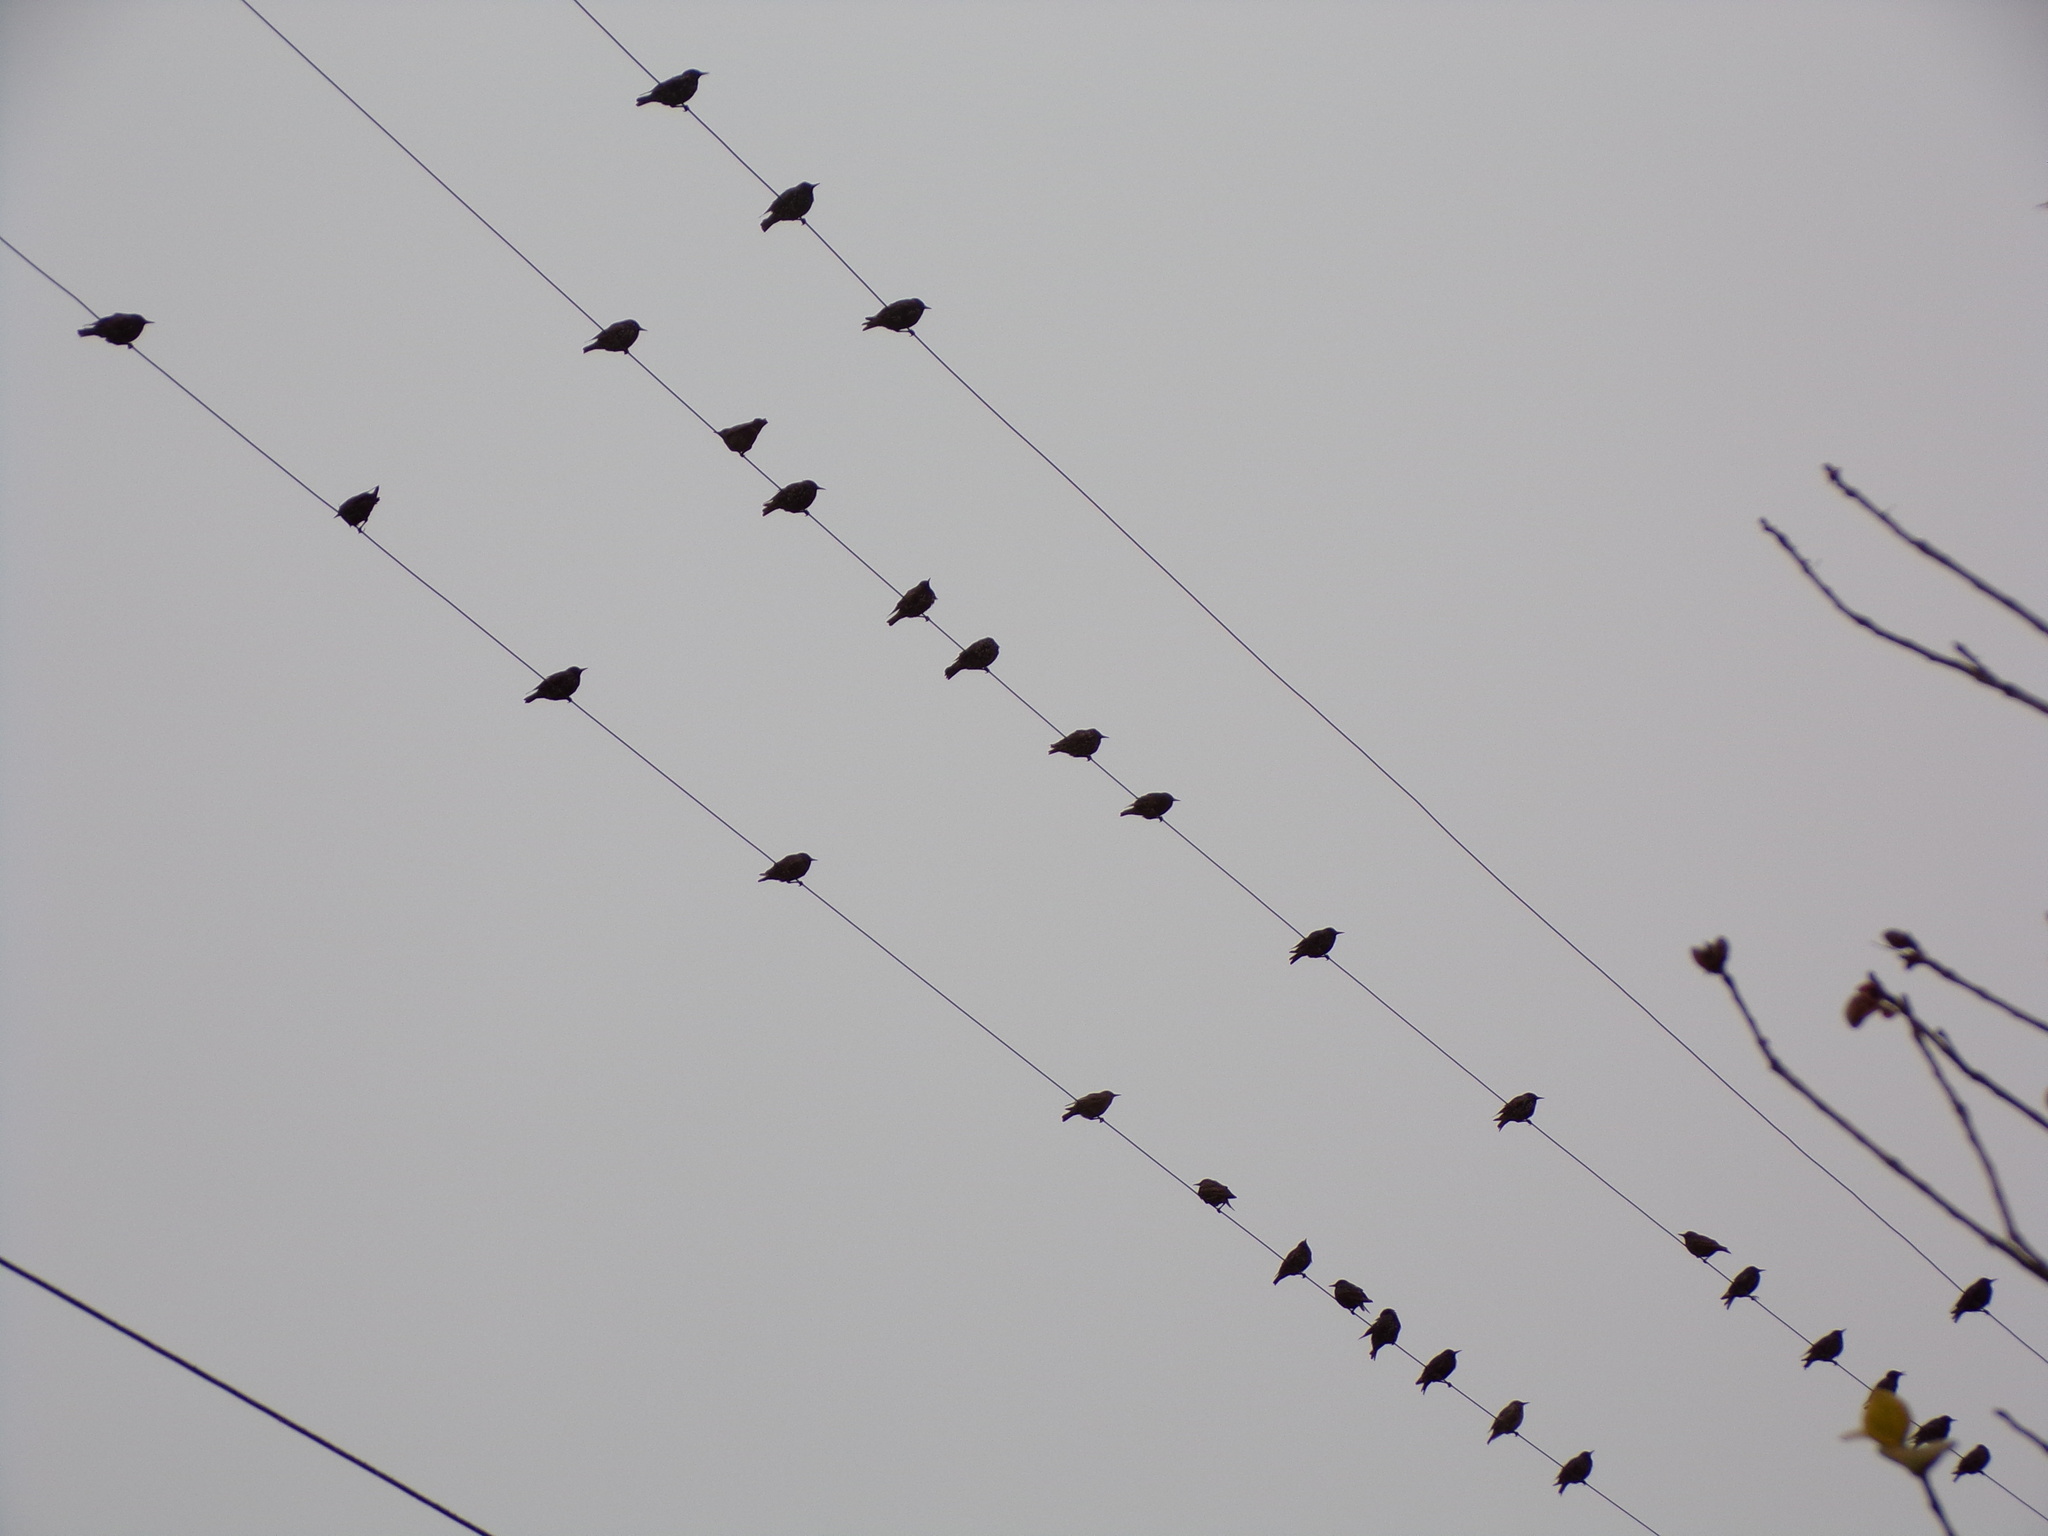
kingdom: Animalia
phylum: Chordata
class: Aves
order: Passeriformes
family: Sturnidae
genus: Sturnus
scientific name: Sturnus vulgaris
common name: Common starling
